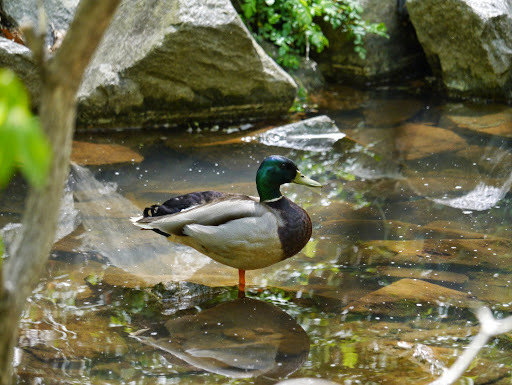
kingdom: Animalia
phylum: Chordata
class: Aves
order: Anseriformes
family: Anatidae
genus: Anas
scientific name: Anas platyrhynchos
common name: Mallard
